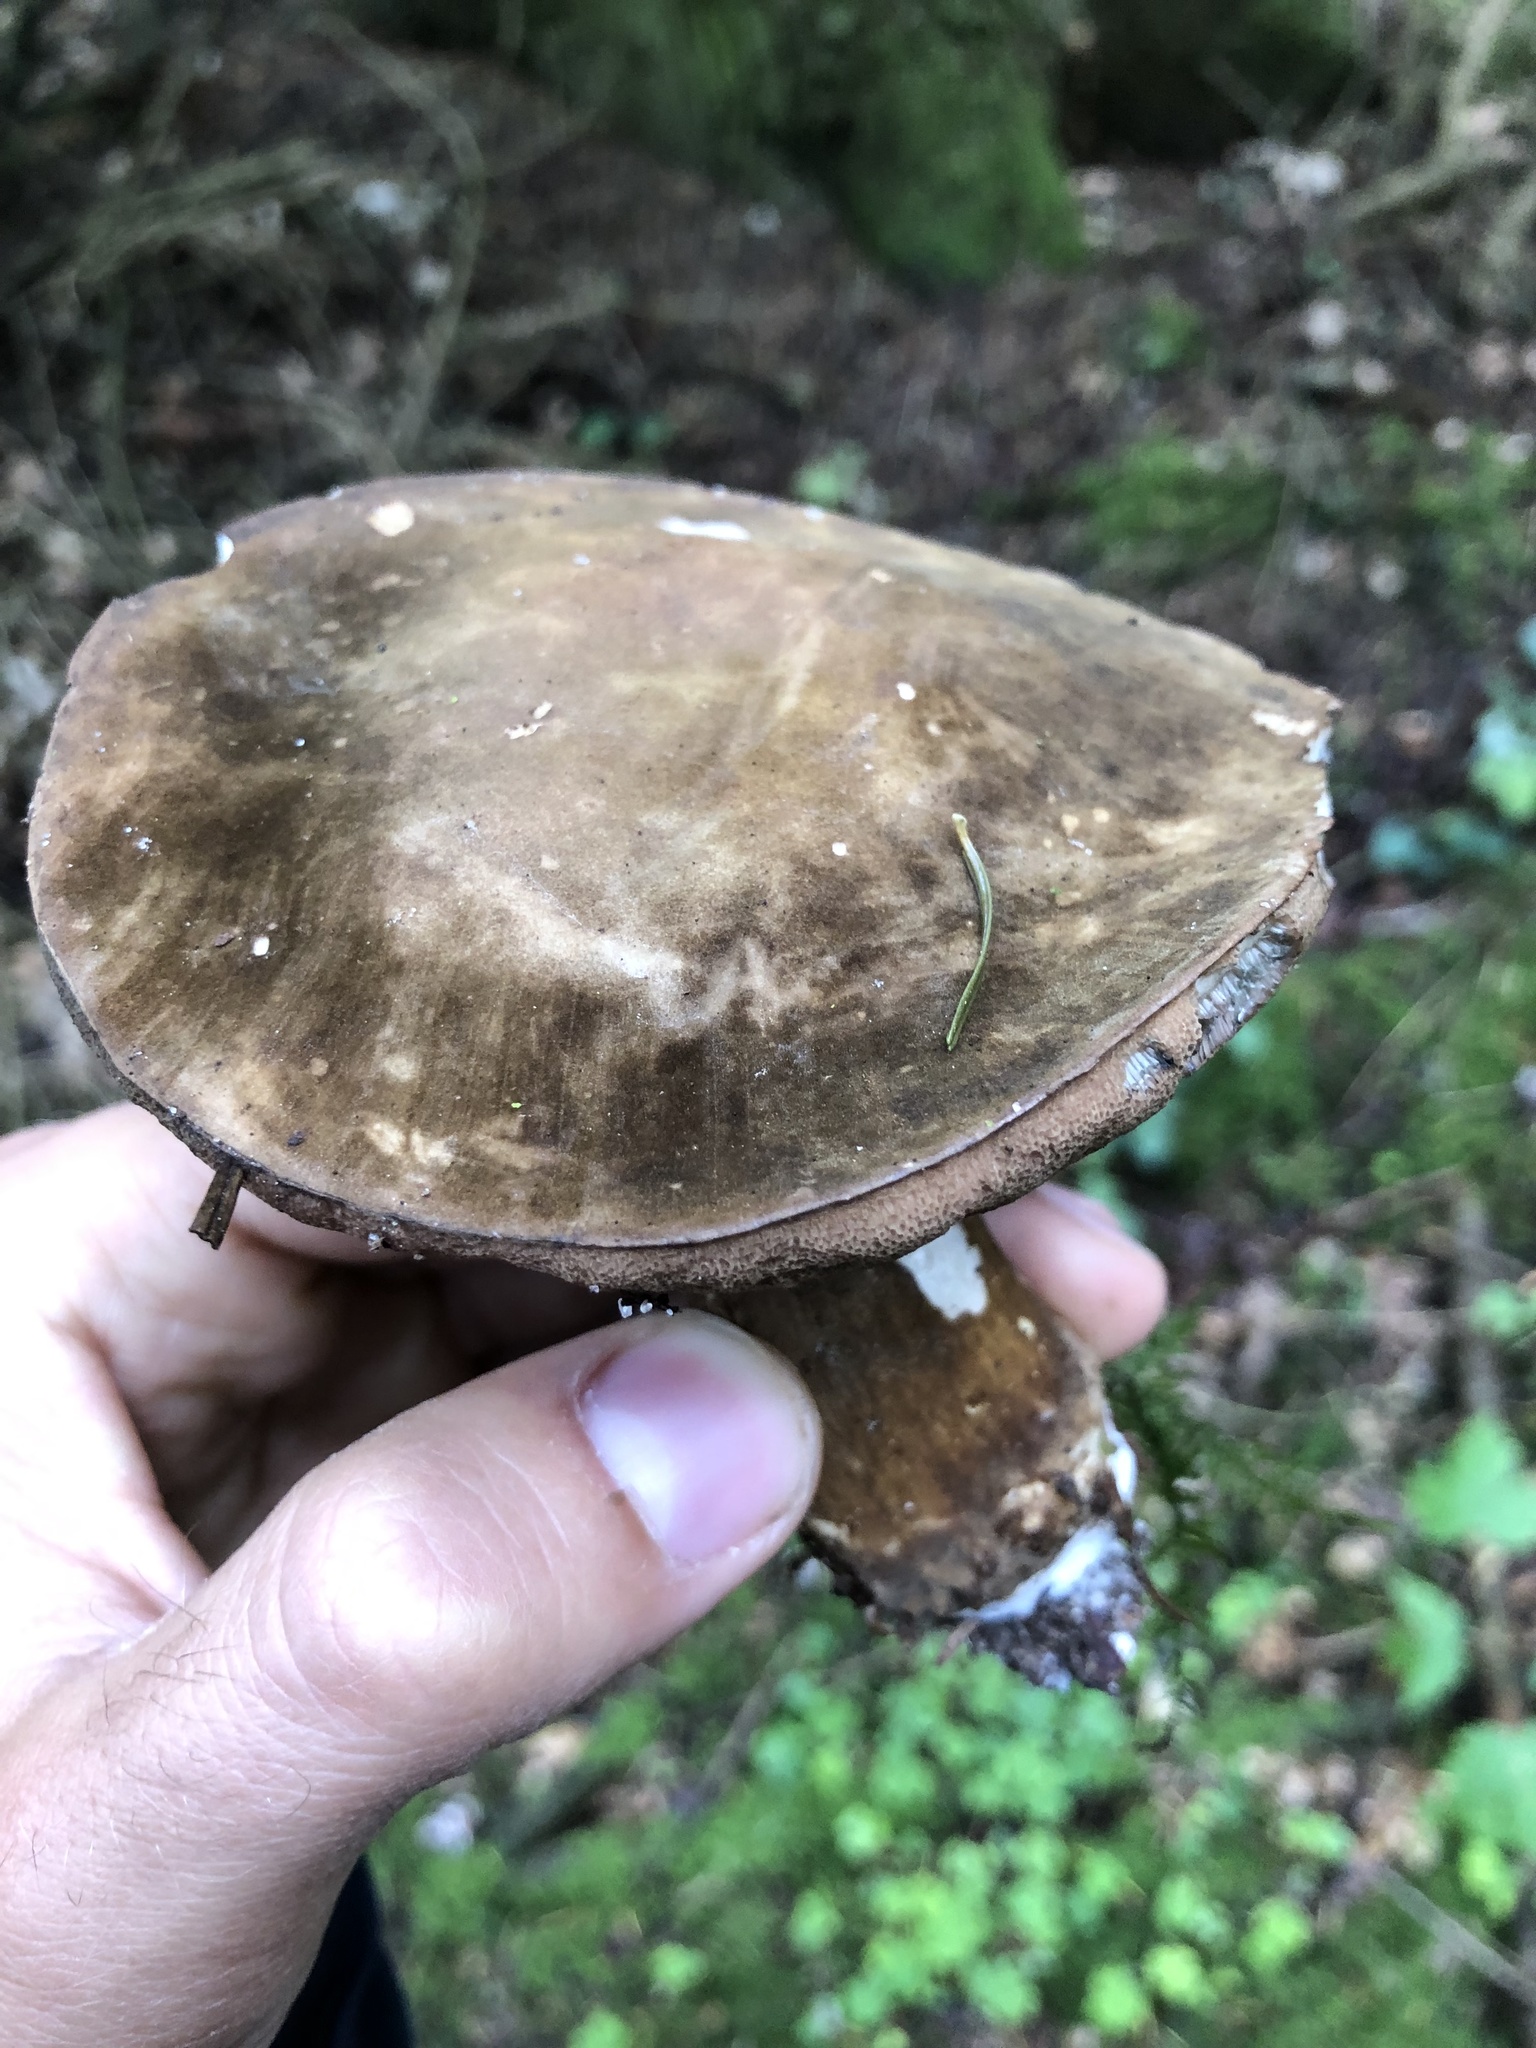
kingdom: Fungi
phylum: Basidiomycota
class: Agaricomycetes
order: Boletales
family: Boletaceae
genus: Porphyrellus
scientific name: Porphyrellus porphyrosporus
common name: Dusky bolete
